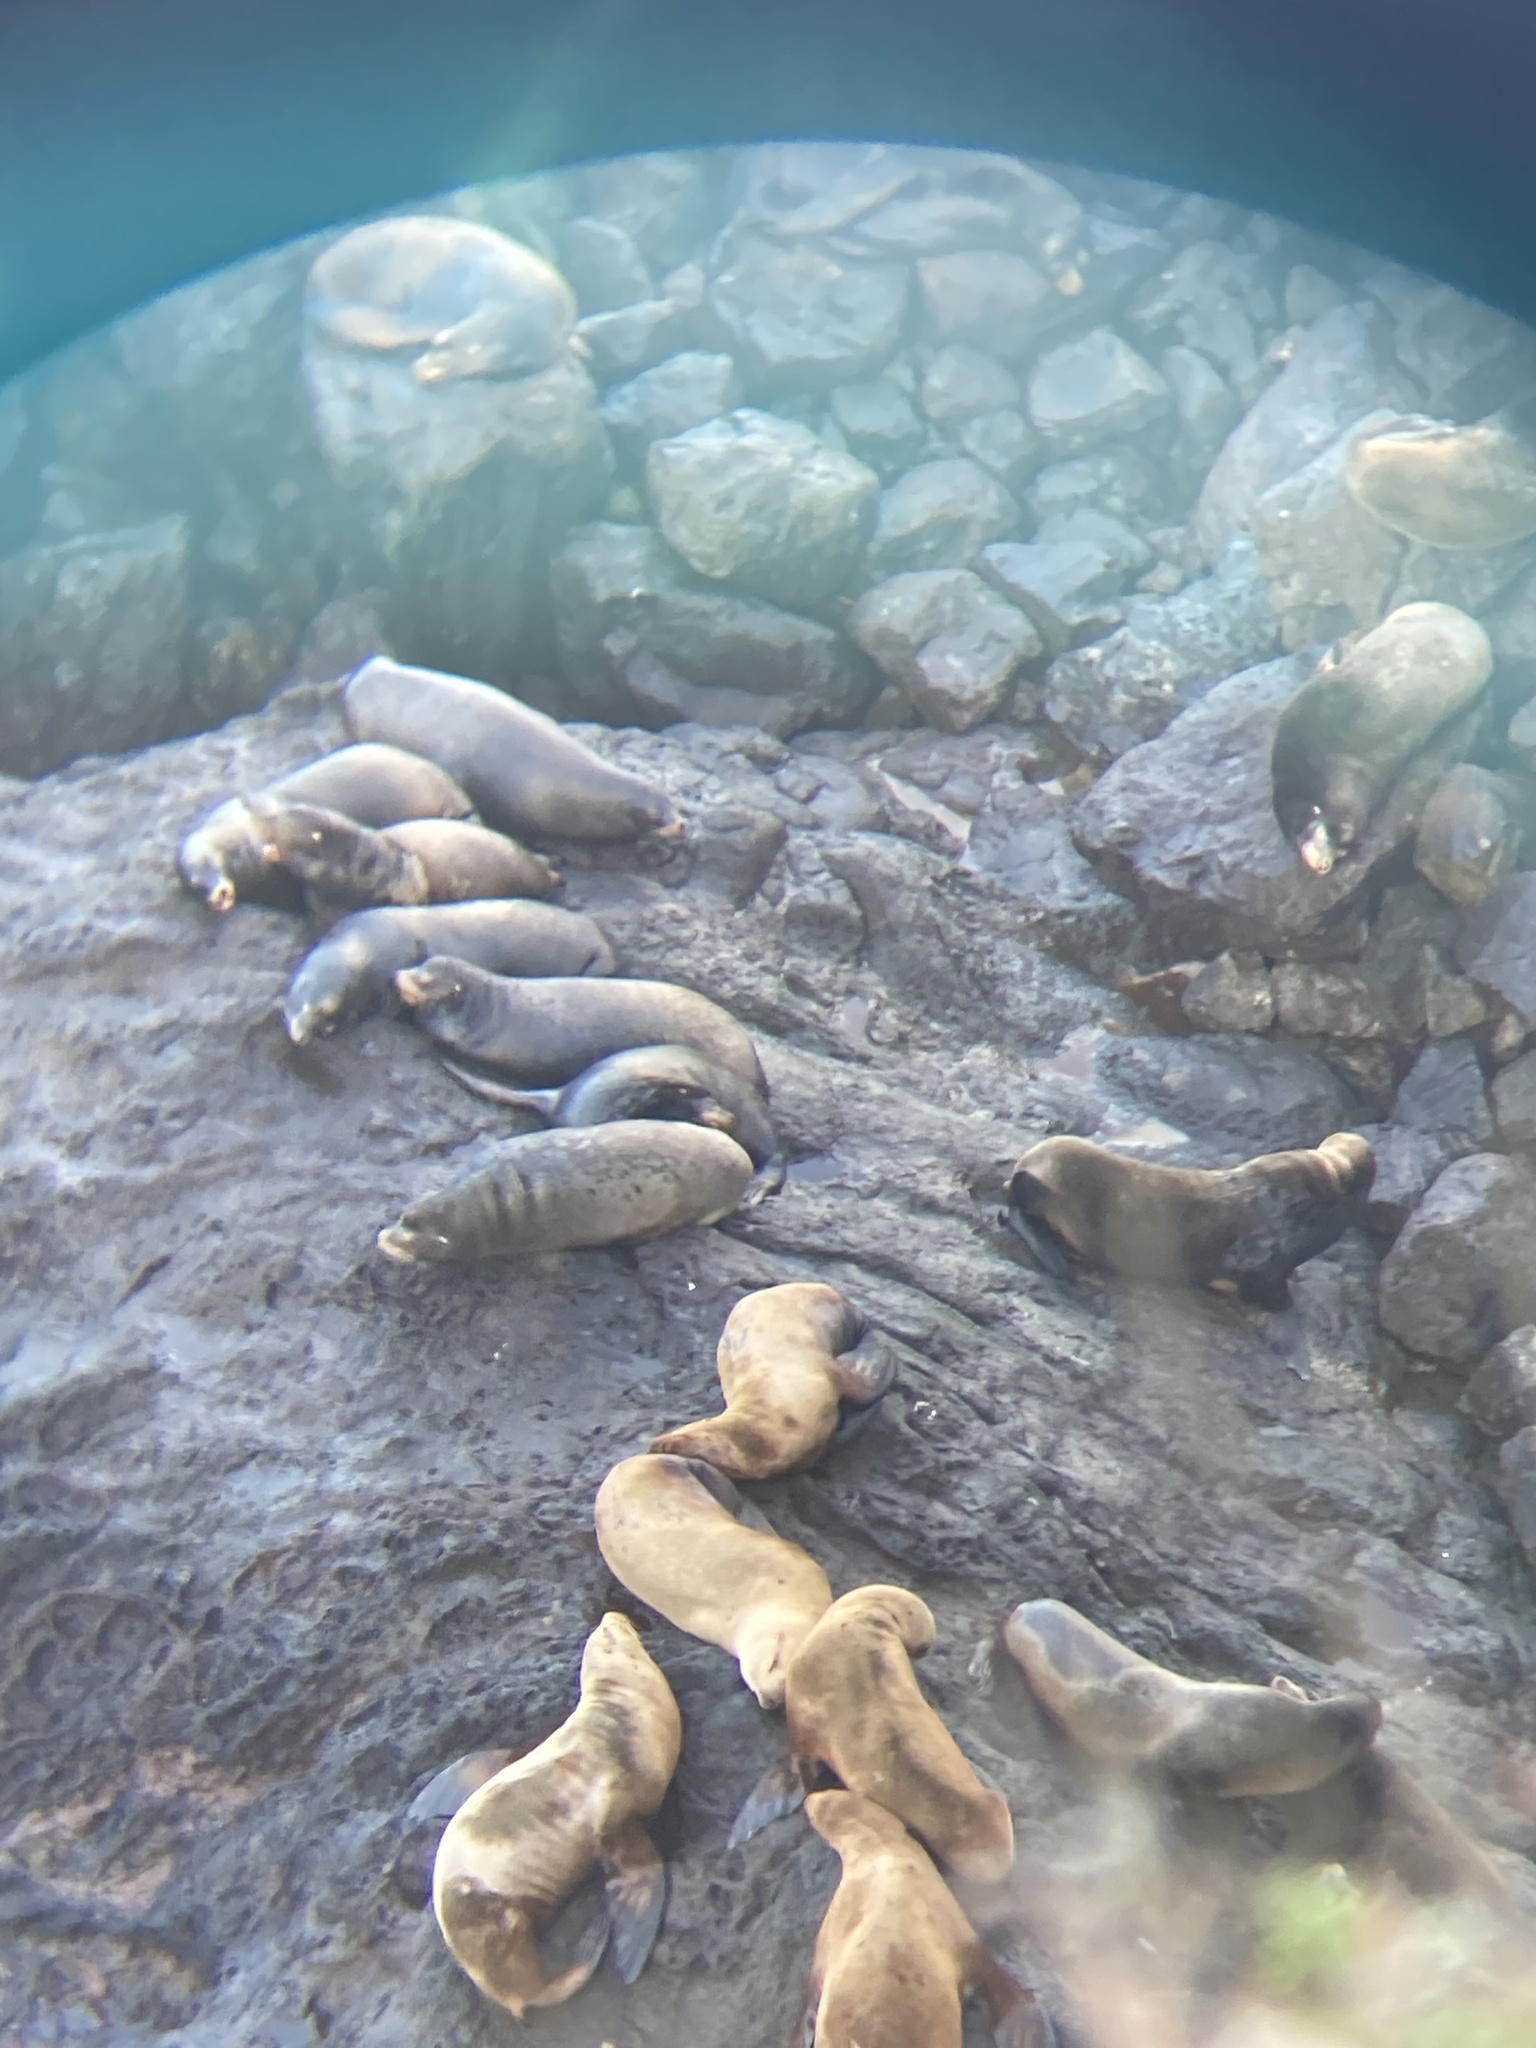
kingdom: Animalia
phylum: Chordata
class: Mammalia
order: Carnivora
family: Otariidae
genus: Eumetopias
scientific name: Eumetopias jubatus
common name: Steller sea lion
